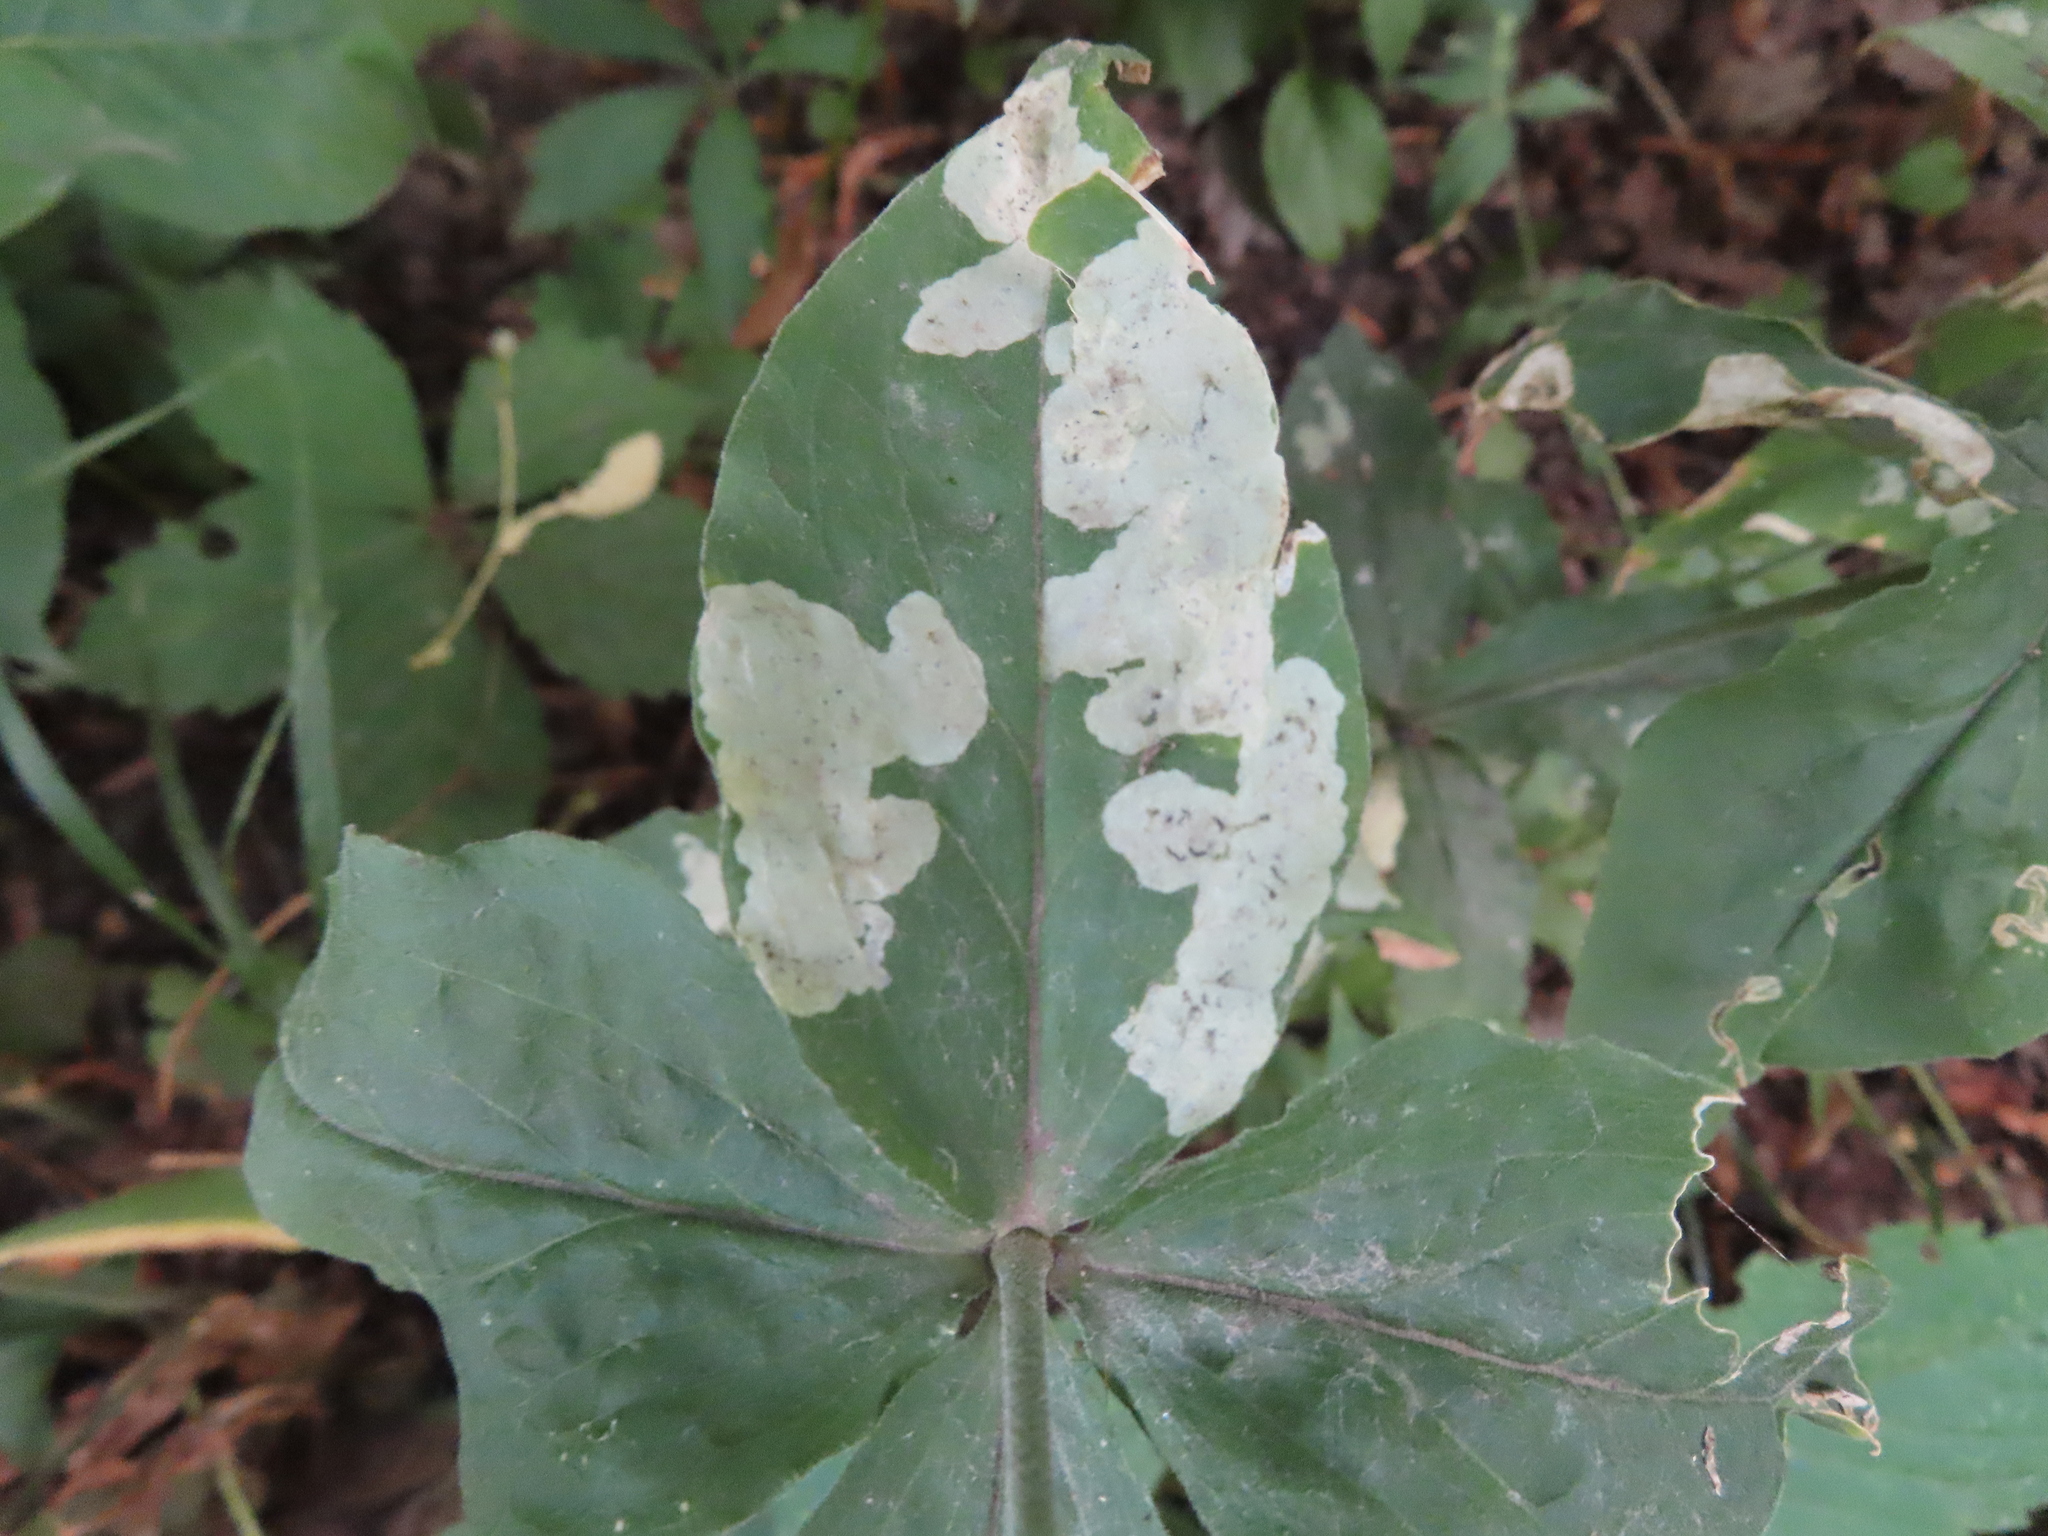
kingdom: Animalia
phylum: Arthropoda
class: Insecta
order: Diptera
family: Agromyzidae
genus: Amauromyza
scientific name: Amauromyza flavifrons
